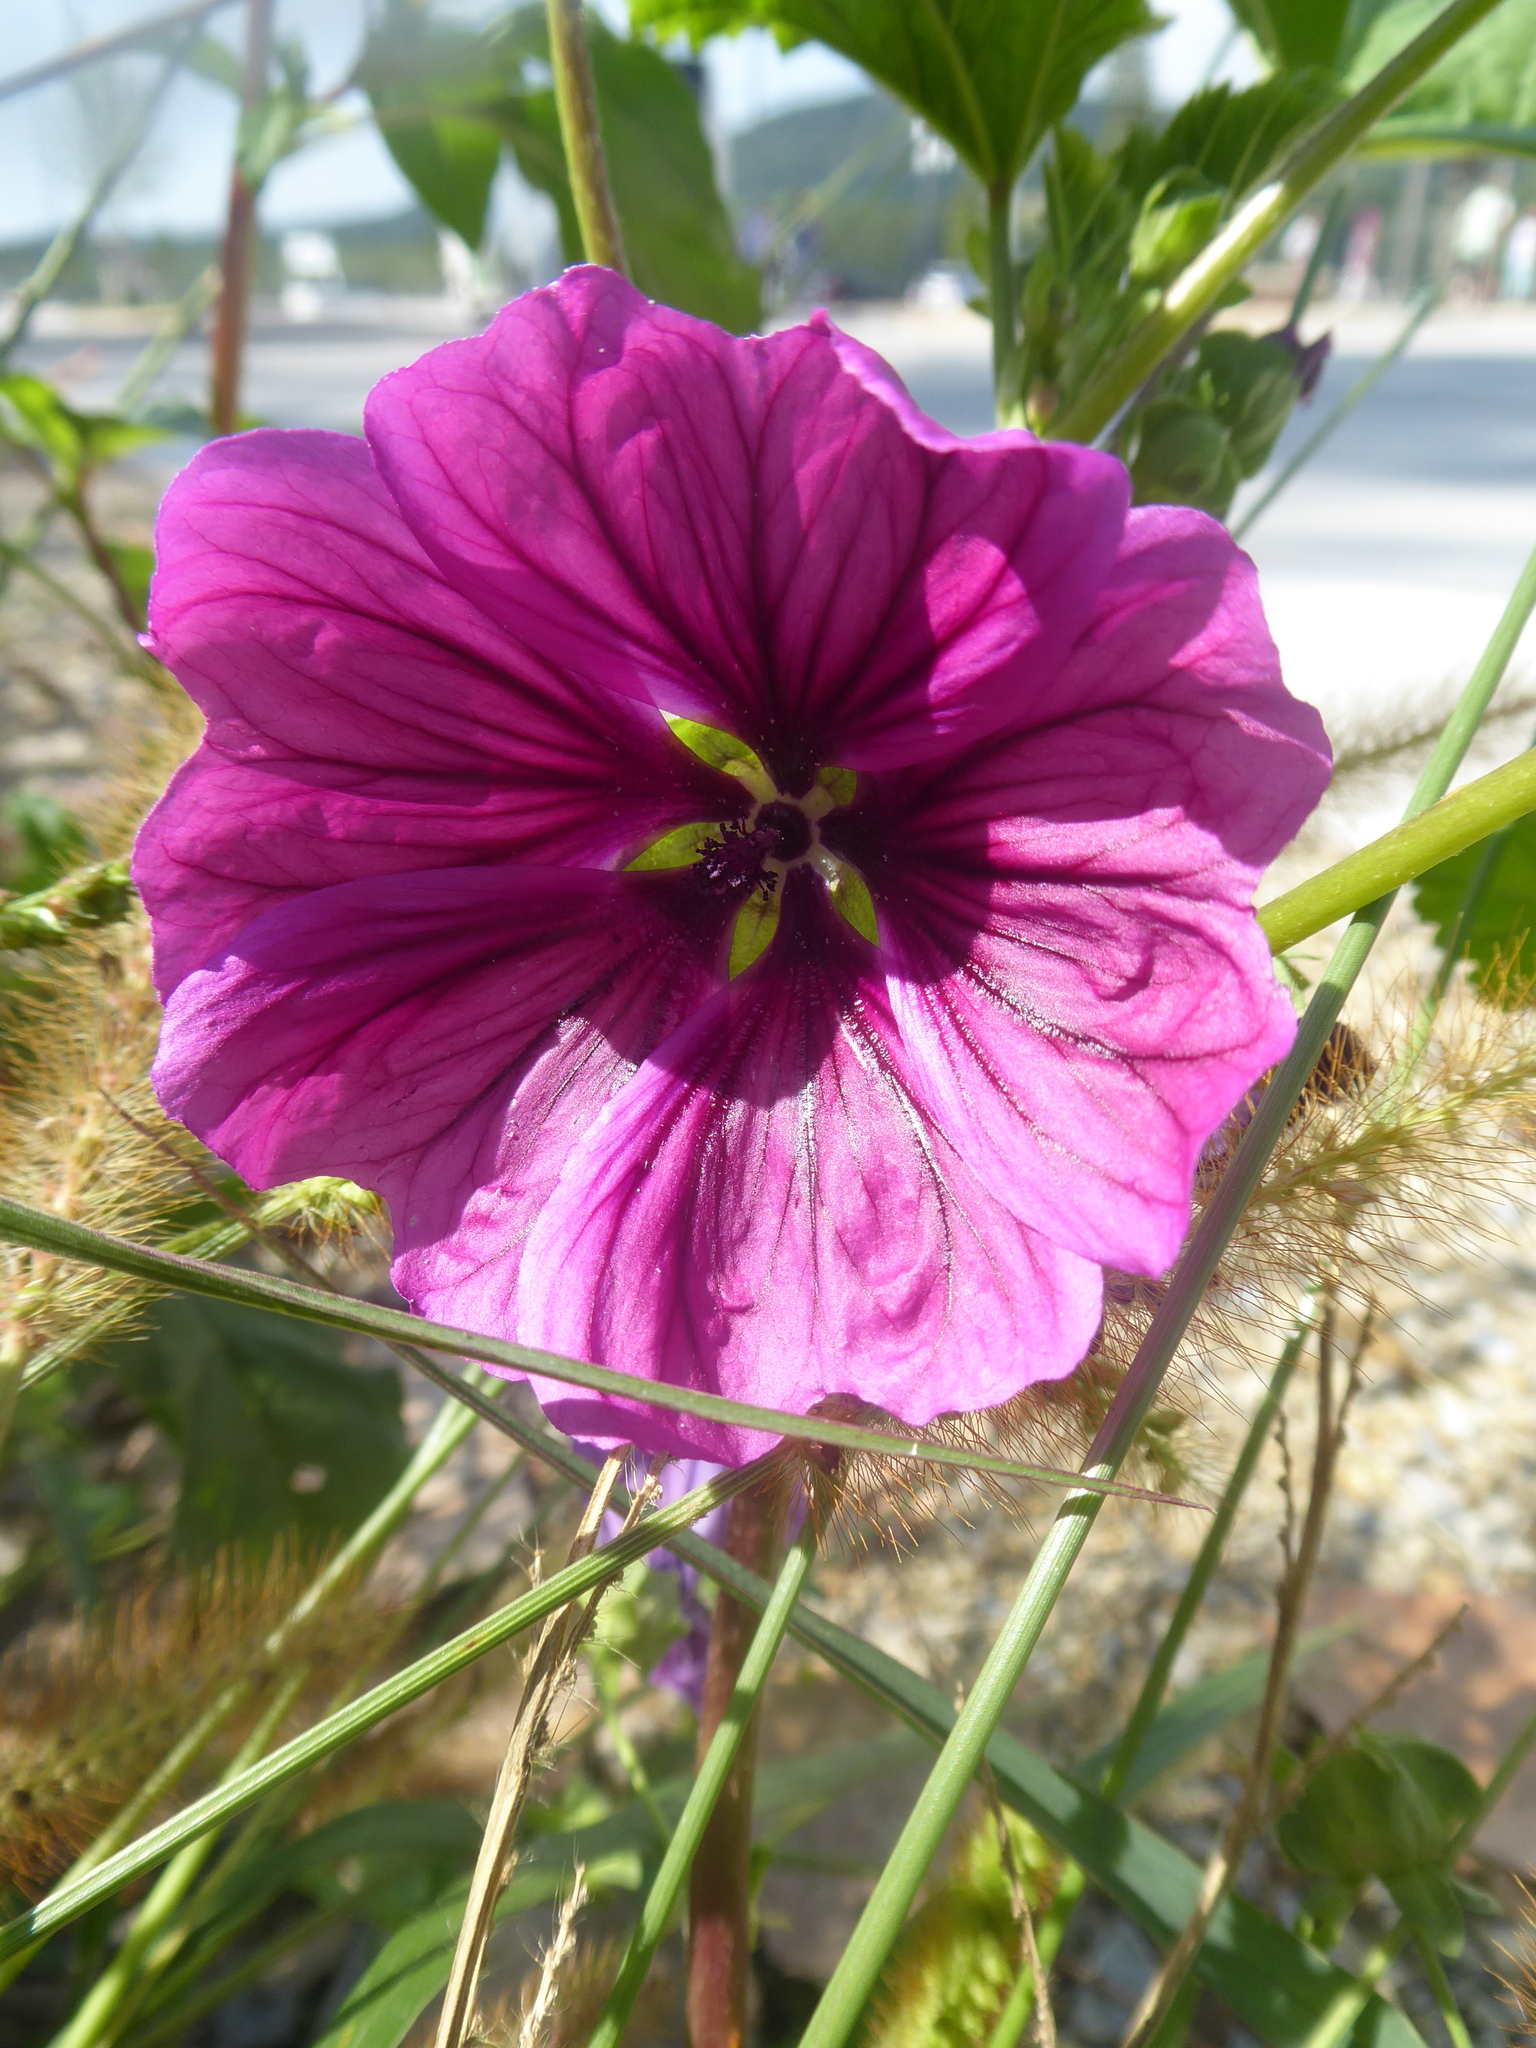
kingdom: Plantae
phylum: Tracheophyta
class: Magnoliopsida
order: Malvales
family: Malvaceae
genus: Malva
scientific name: Malva sylvestris
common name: Common mallow
